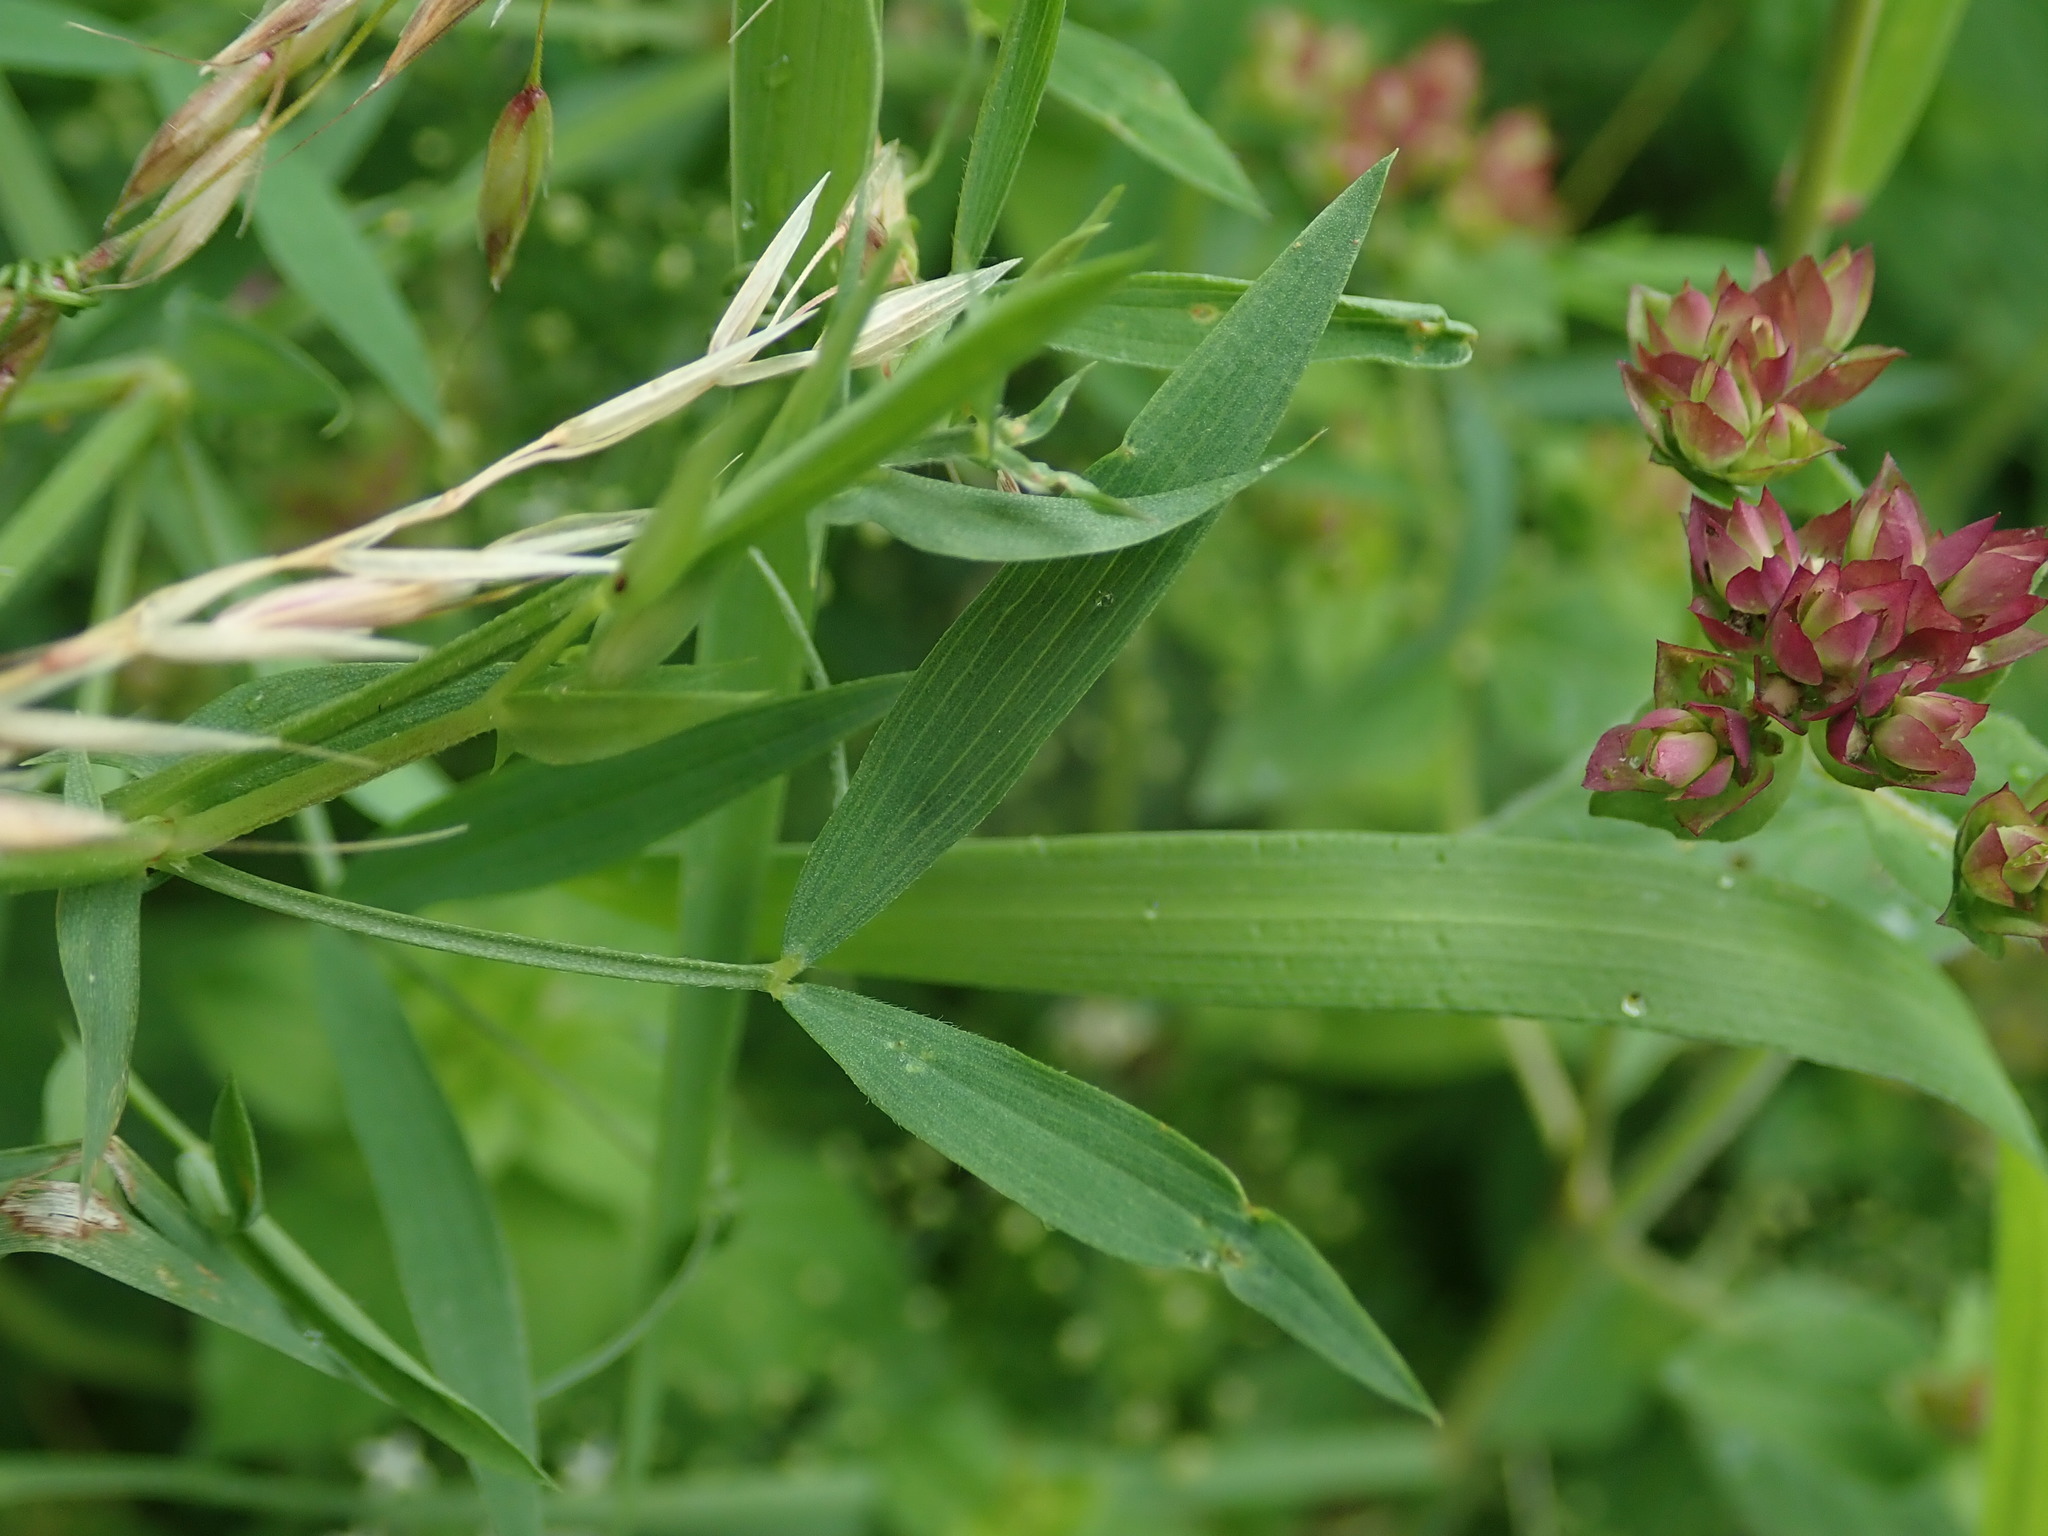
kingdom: Plantae
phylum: Tracheophyta
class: Magnoliopsida
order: Fabales
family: Fabaceae
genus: Lathyrus
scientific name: Lathyrus pratensis
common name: Meadow vetchling
